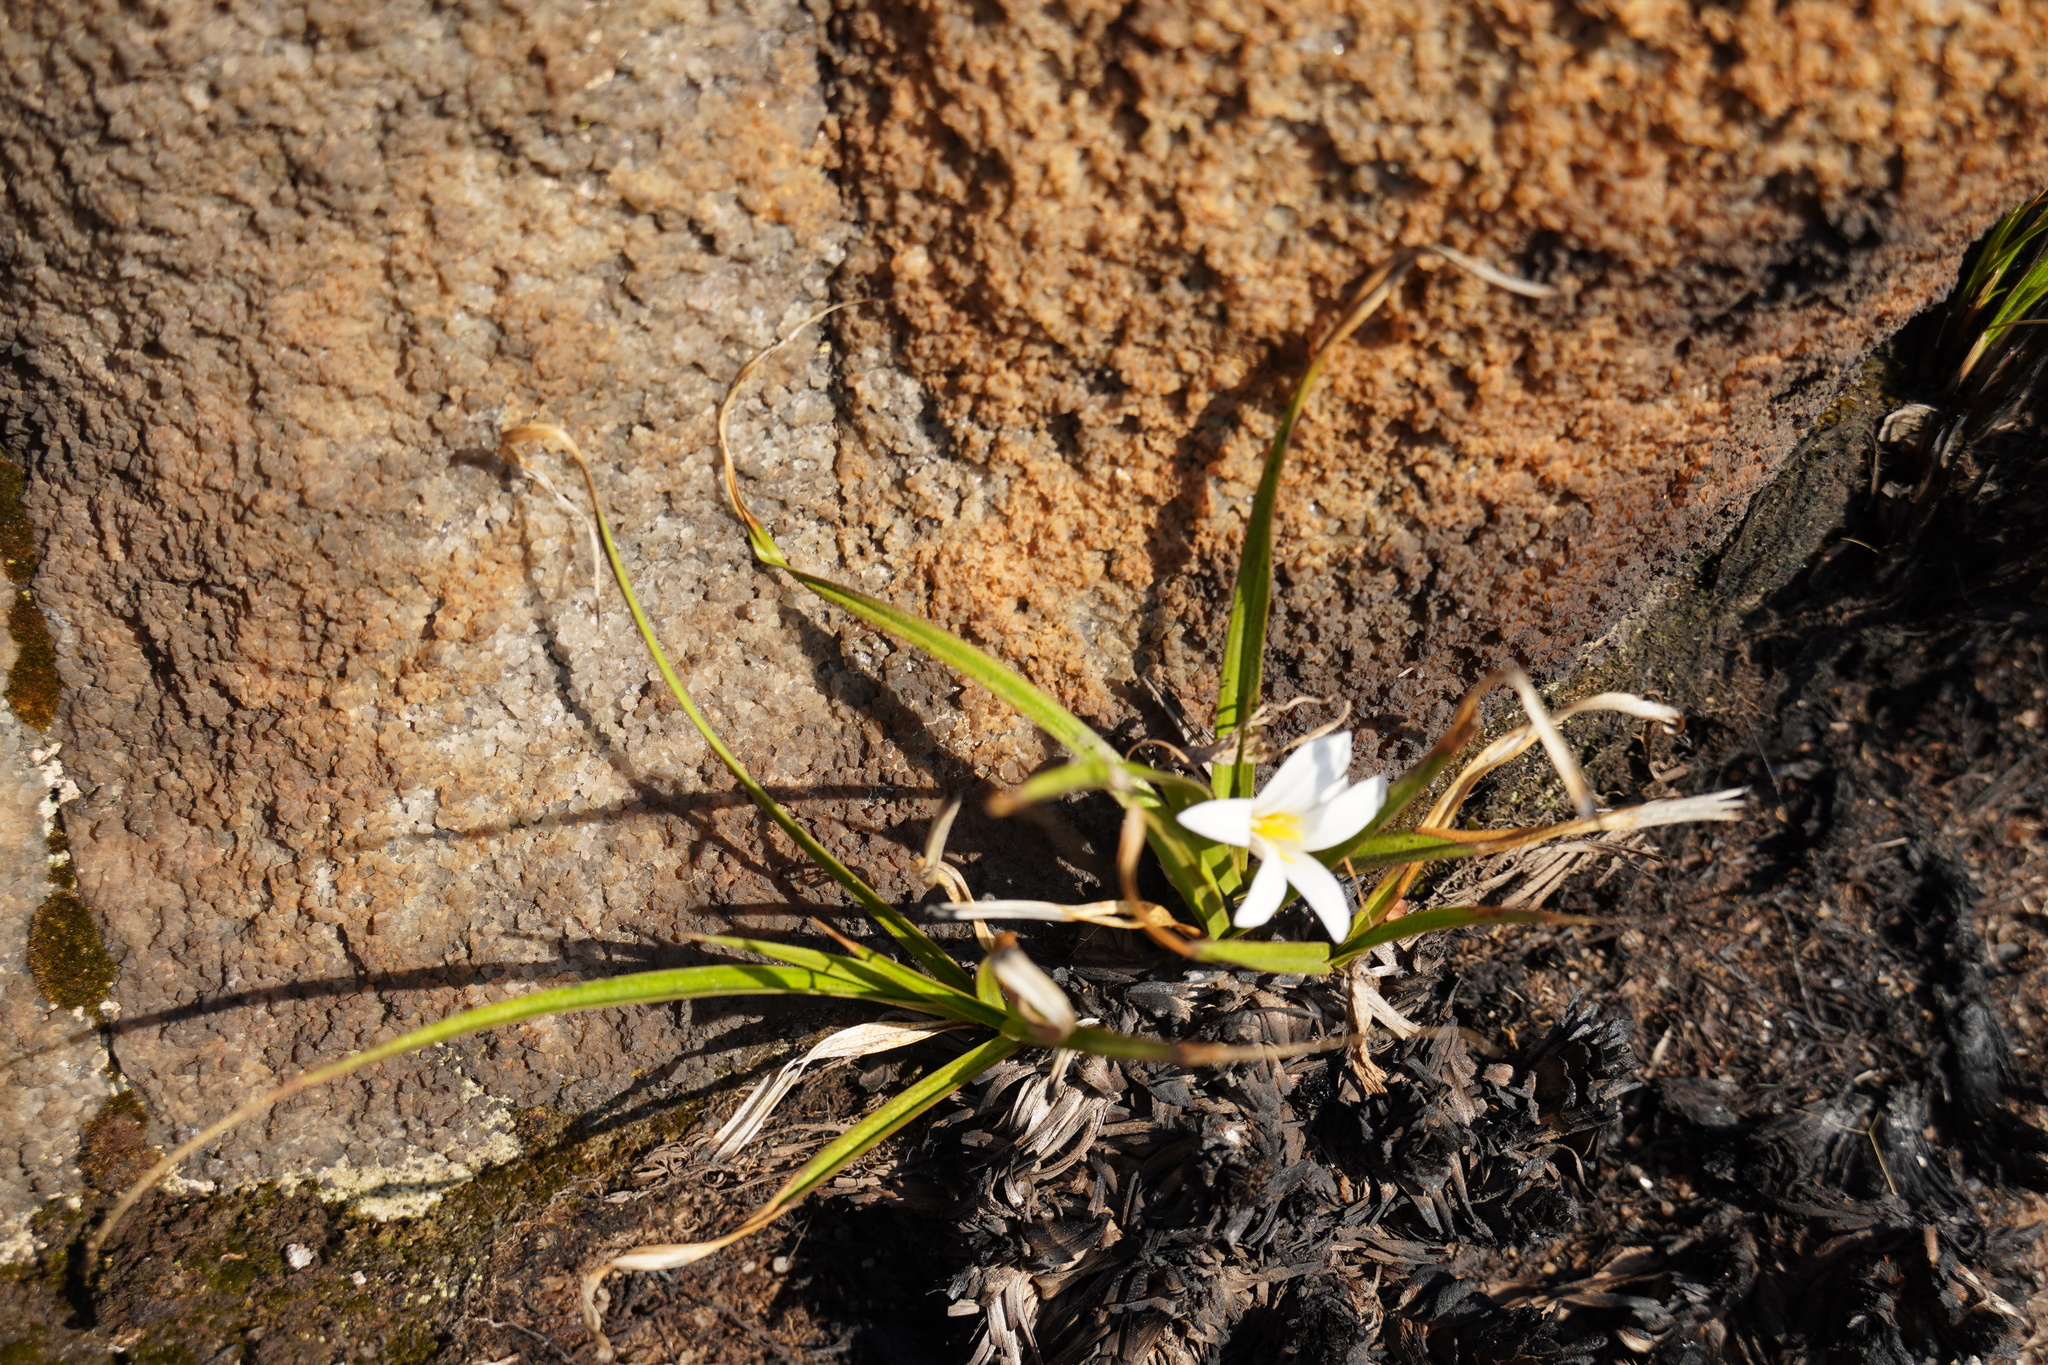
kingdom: Plantae
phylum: Tracheophyta
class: Liliopsida
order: Pandanales
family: Velloziaceae
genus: Xerophyta
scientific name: Xerophyta adendorffii
